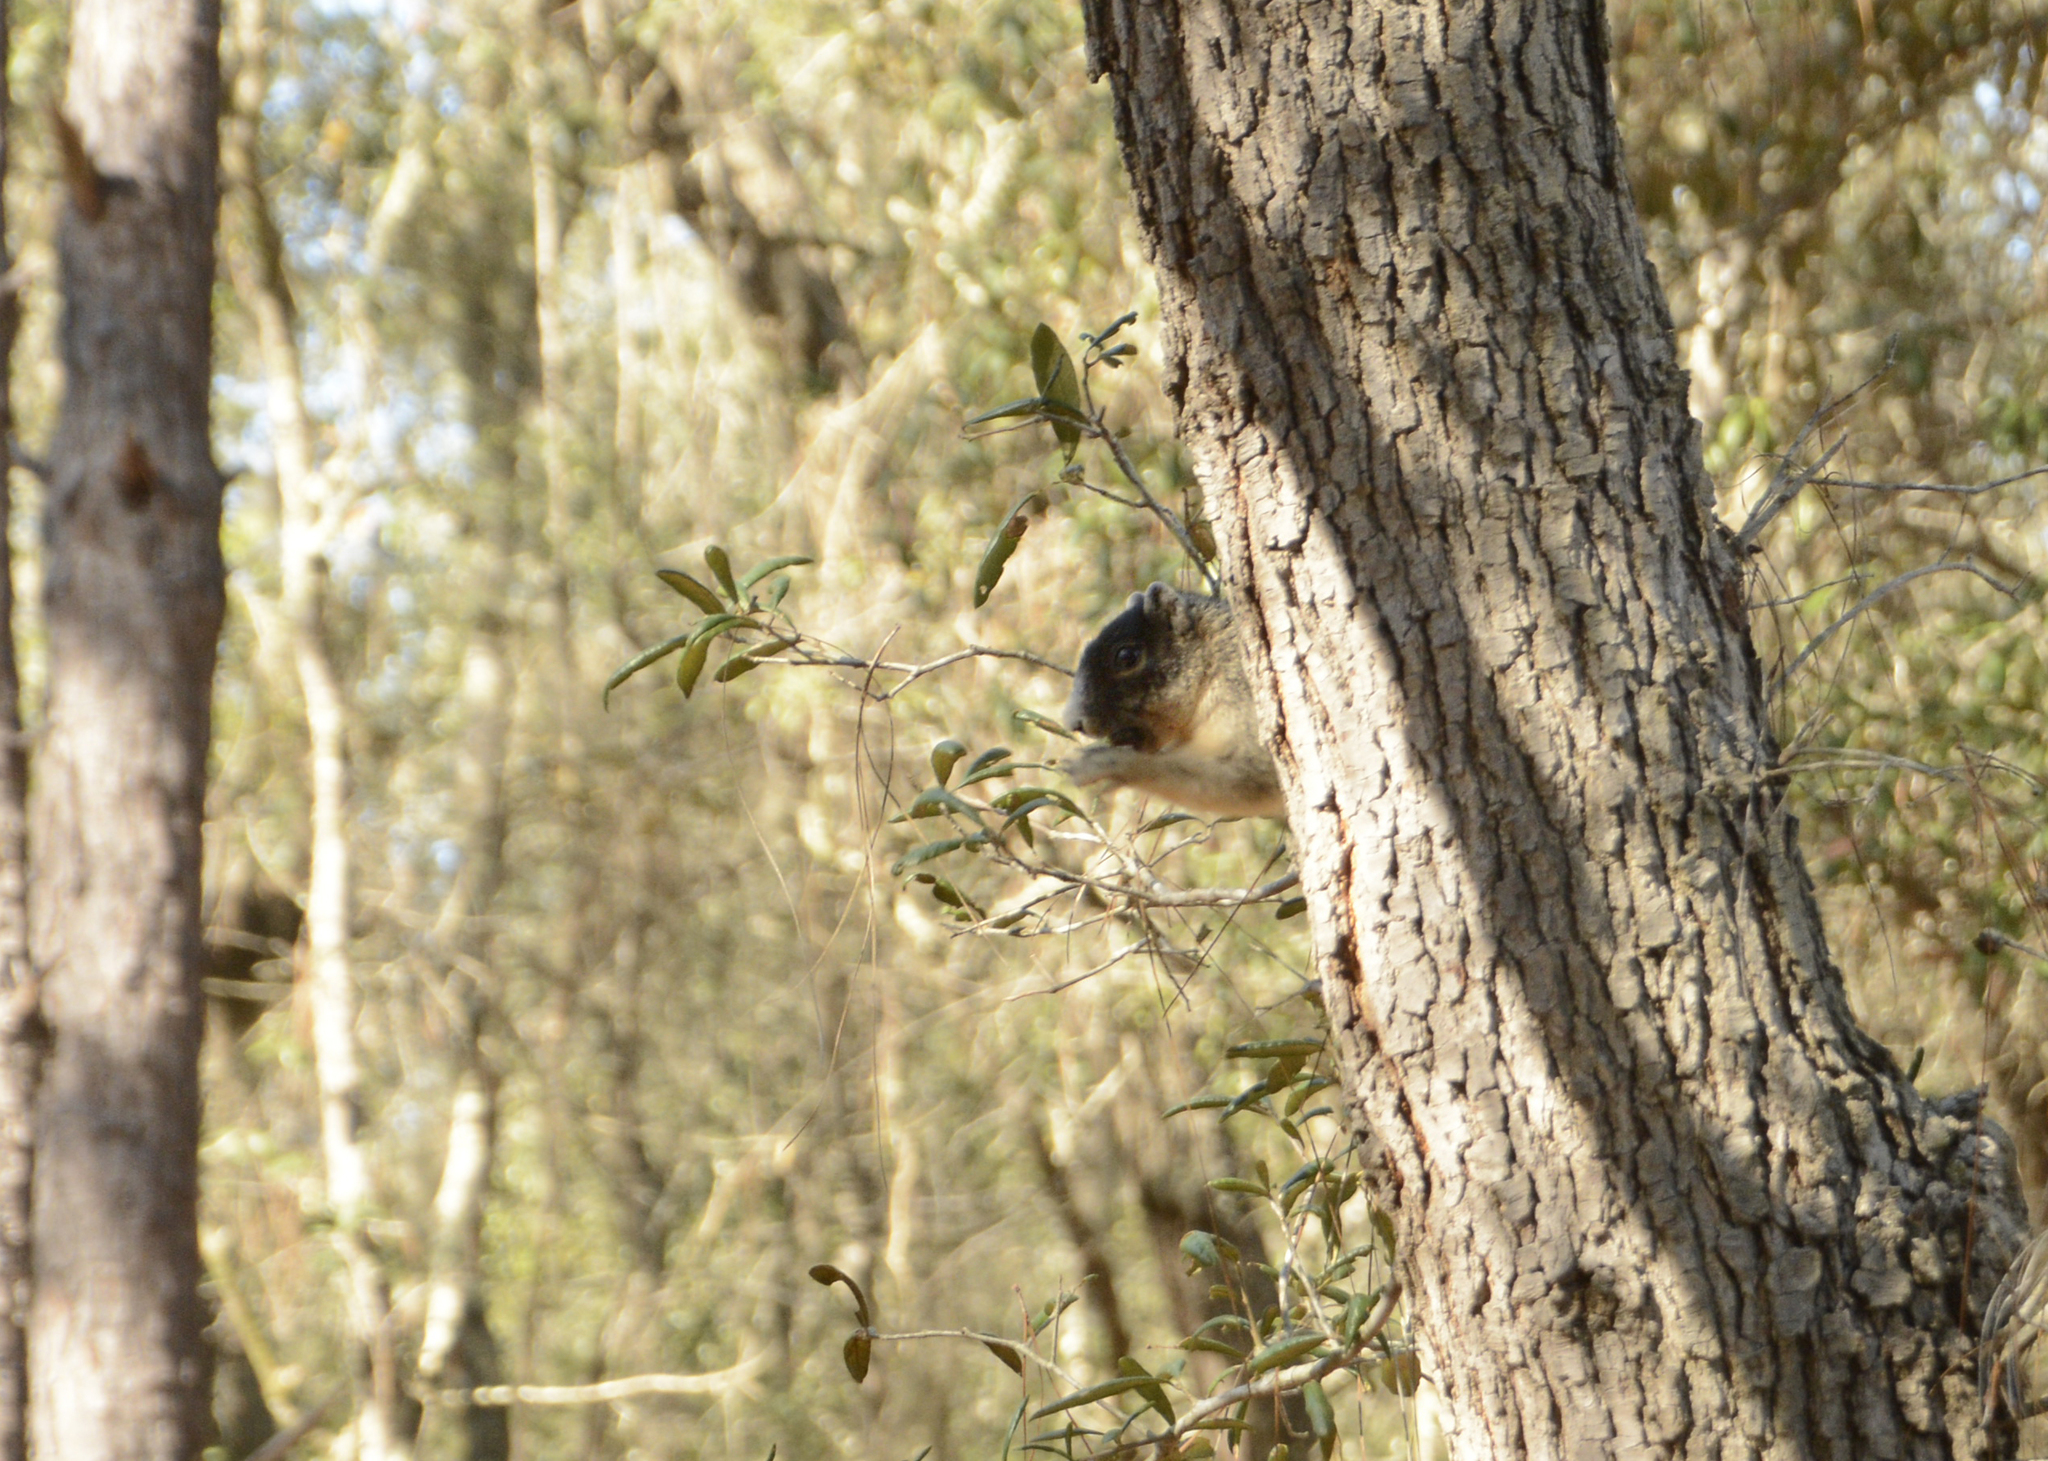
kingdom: Animalia
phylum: Chordata
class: Mammalia
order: Rodentia
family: Sciuridae
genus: Sciurus
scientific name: Sciurus niger
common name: Fox squirrel
